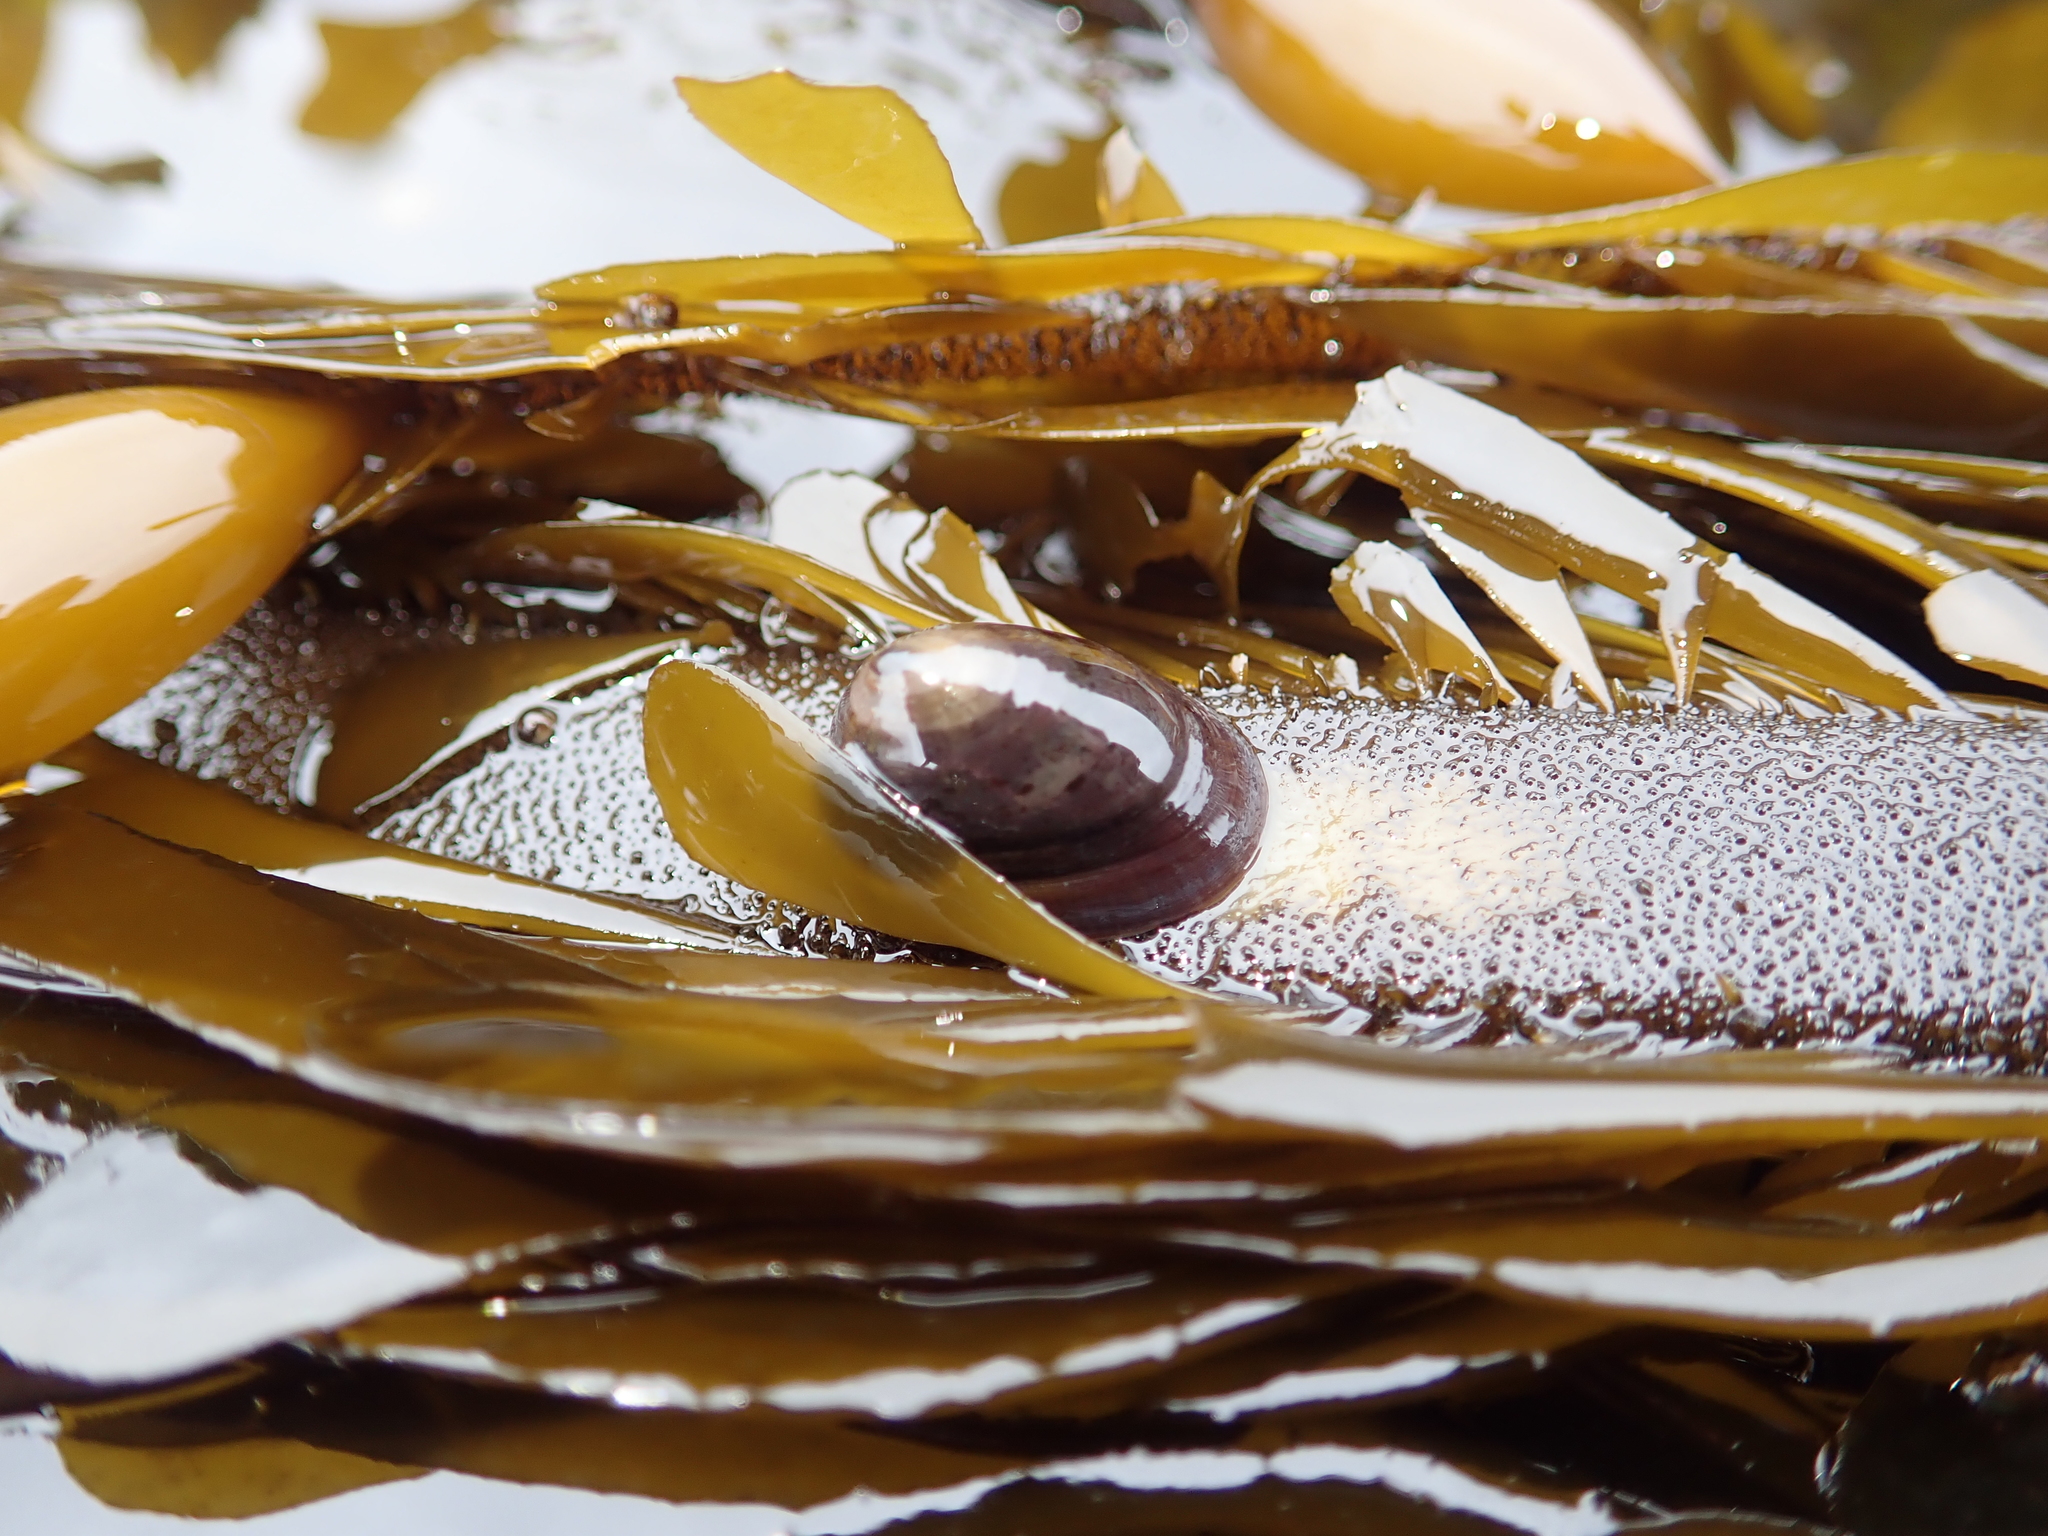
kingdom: Animalia
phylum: Mollusca
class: Gastropoda
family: Lottiidae
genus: Discurria
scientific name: Discurria insessa
